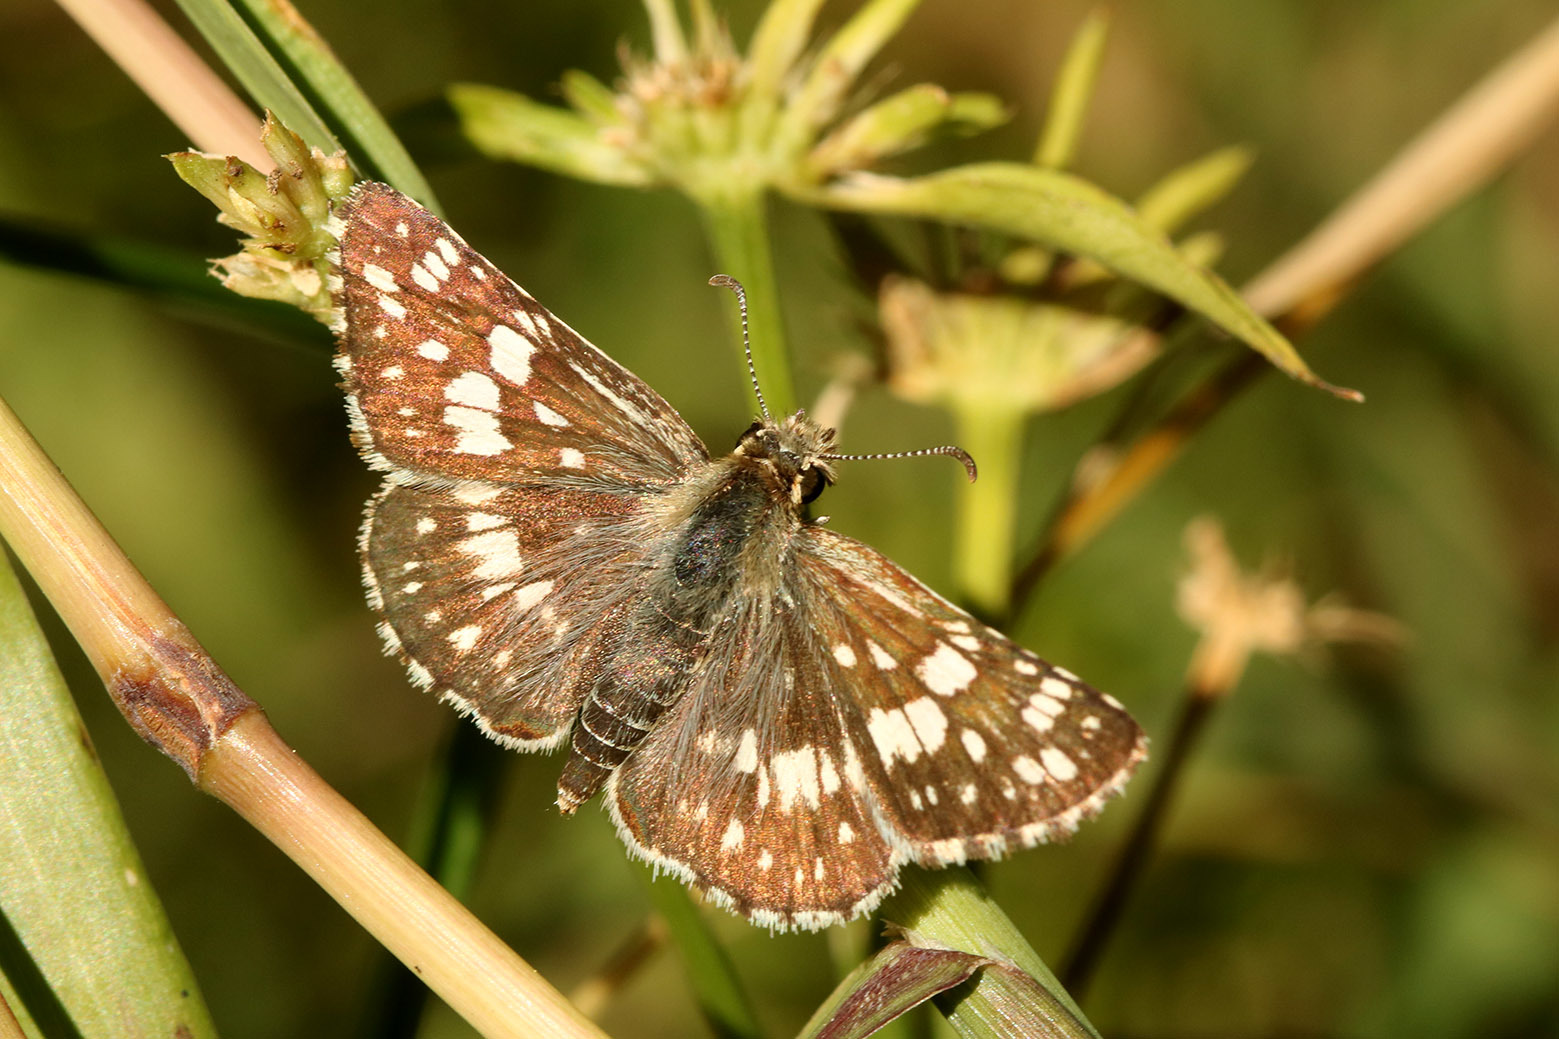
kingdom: Animalia
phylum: Arthropoda
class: Insecta
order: Lepidoptera
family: Hesperiidae
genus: Burnsius
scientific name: Burnsius orcynoides
